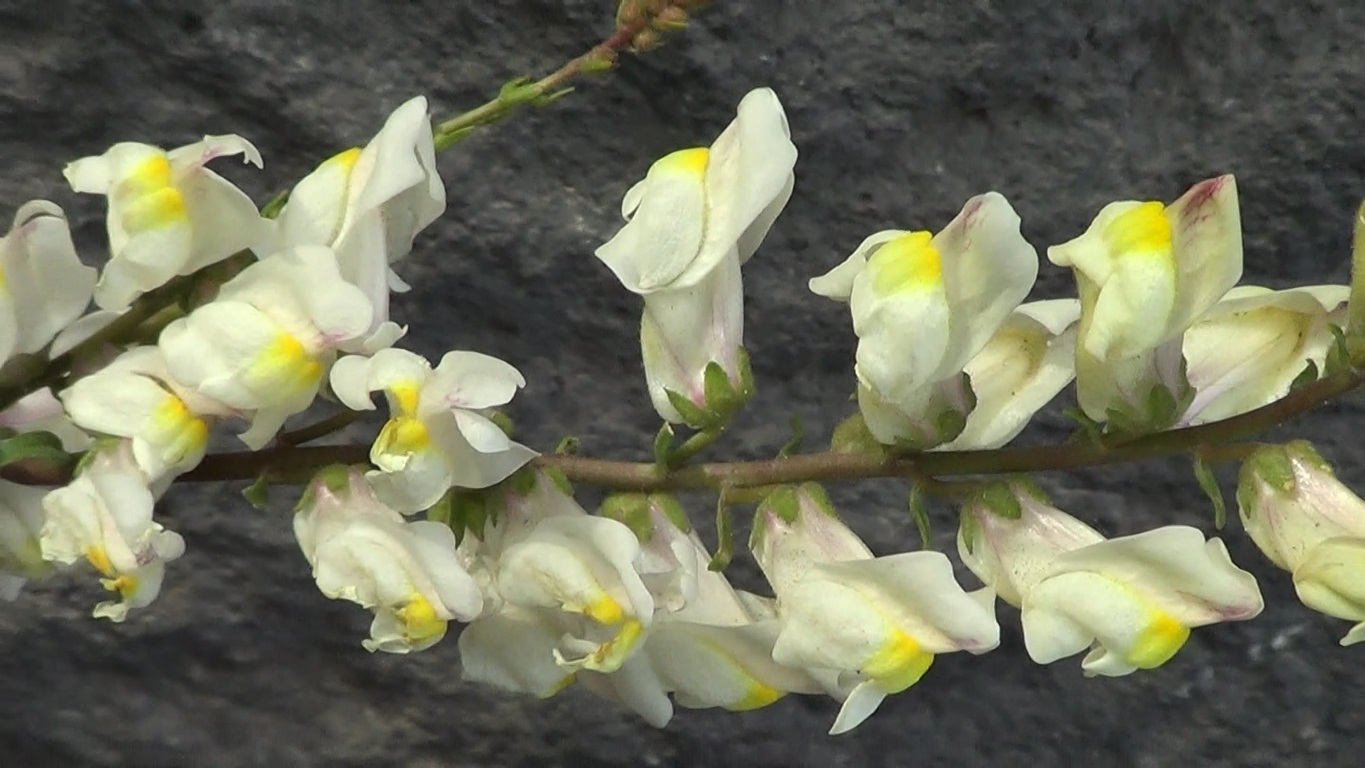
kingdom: Plantae
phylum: Tracheophyta
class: Magnoliopsida
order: Lamiales
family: Plantaginaceae
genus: Antirrhinum
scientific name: Antirrhinum siculum
